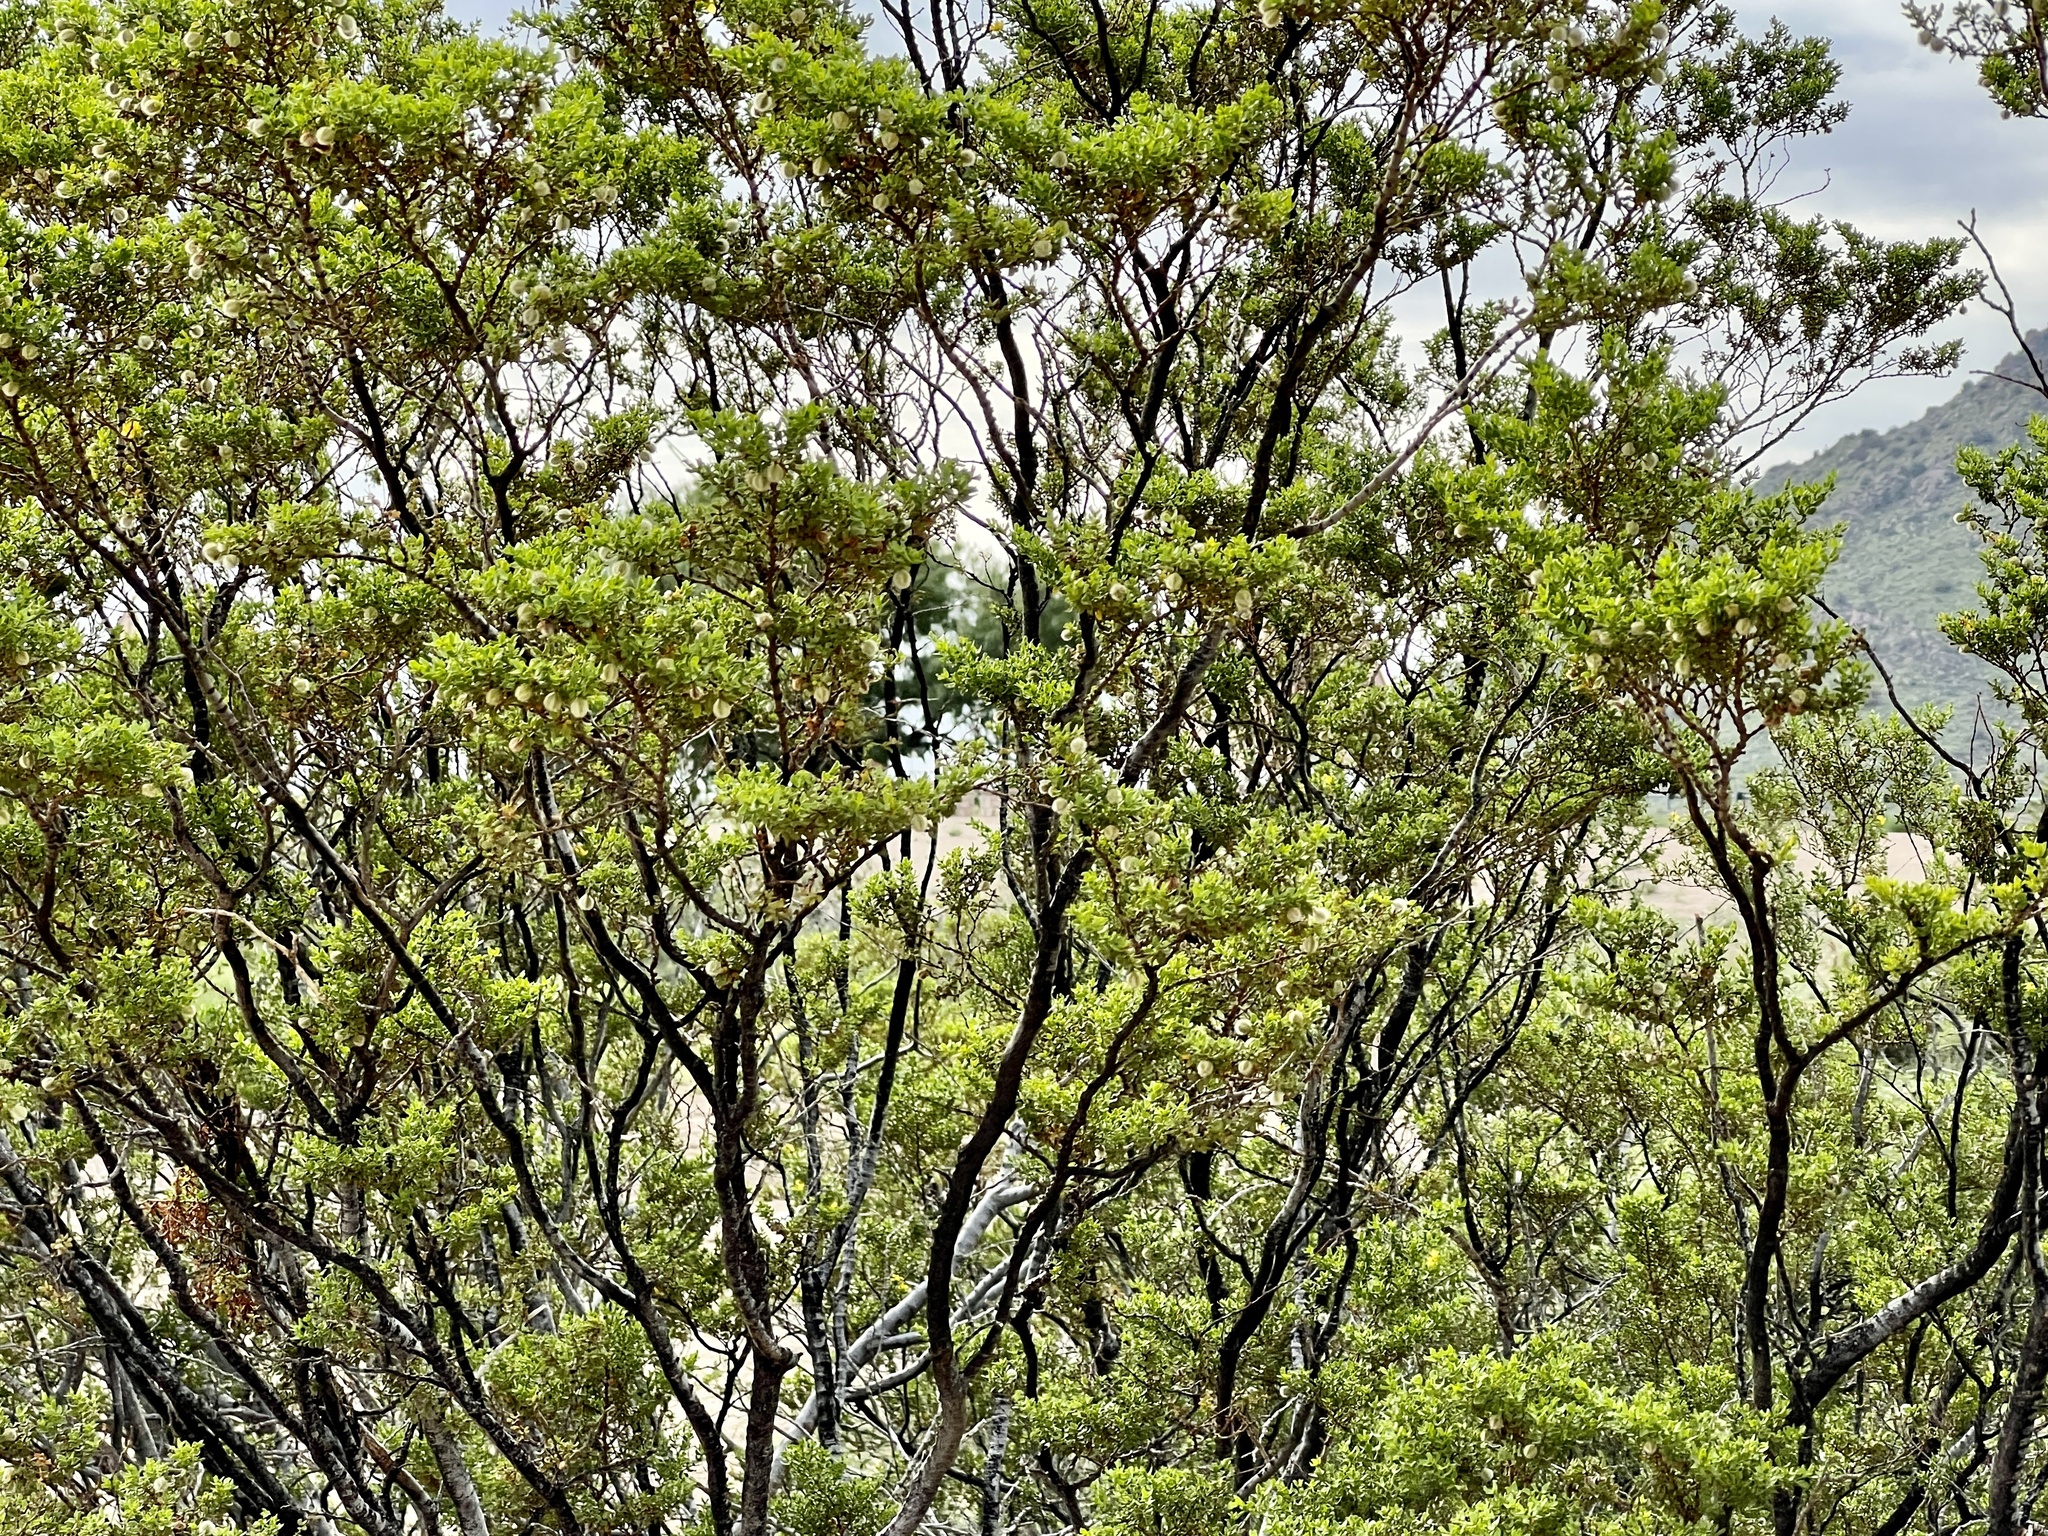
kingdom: Plantae
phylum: Tracheophyta
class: Magnoliopsida
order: Zygophyllales
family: Zygophyllaceae
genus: Larrea
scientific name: Larrea tridentata
